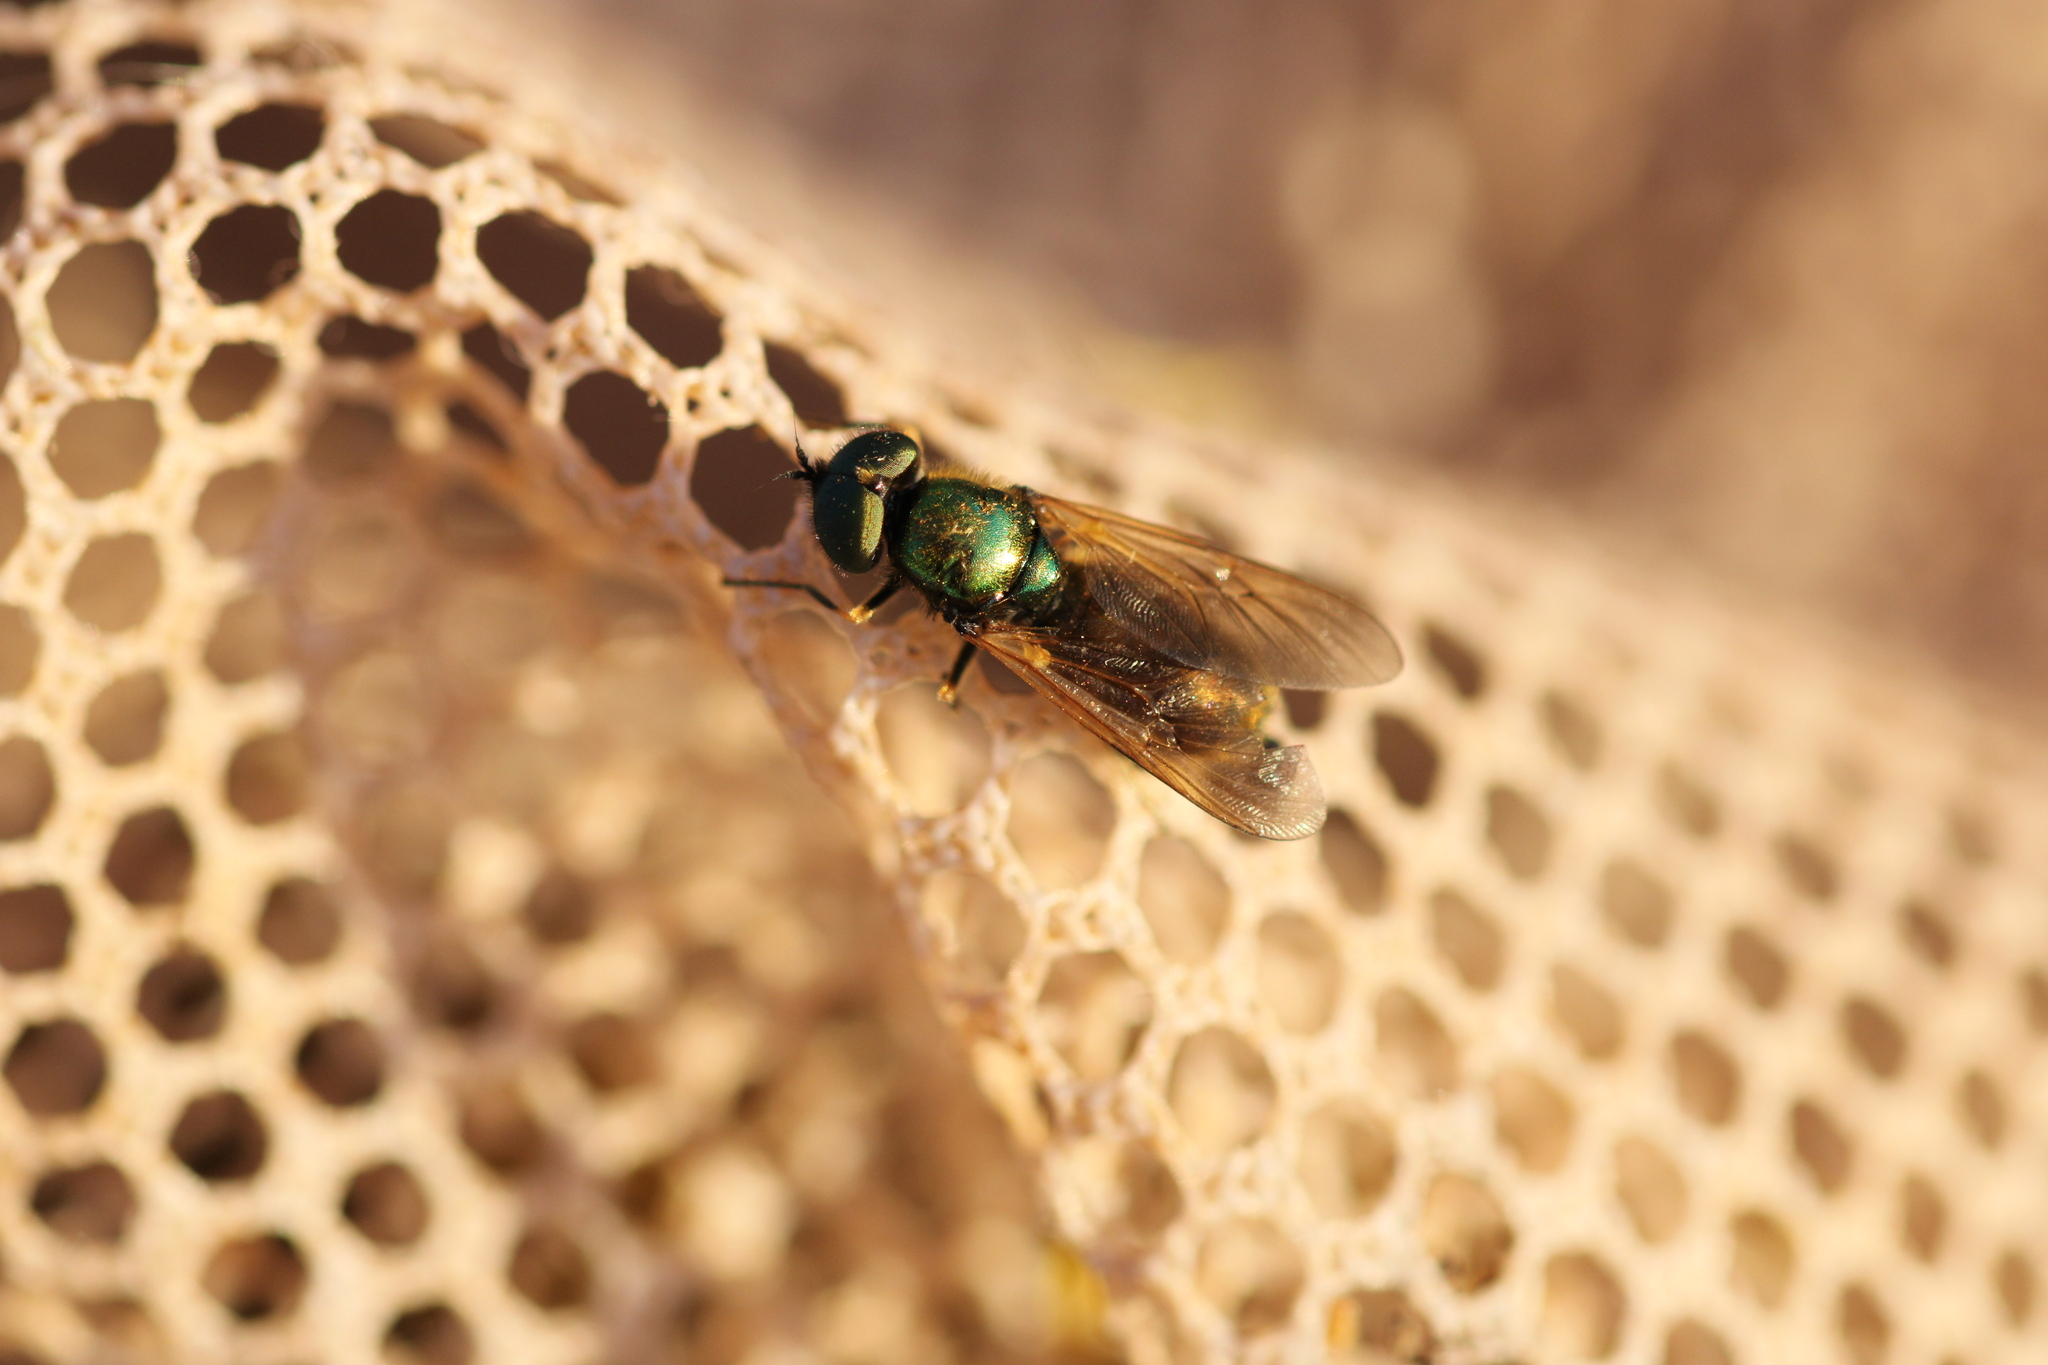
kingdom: Animalia
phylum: Arthropoda
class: Insecta
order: Diptera
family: Stratiomyidae
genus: Chloromyia
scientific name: Chloromyia formosa
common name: Soldier fly
